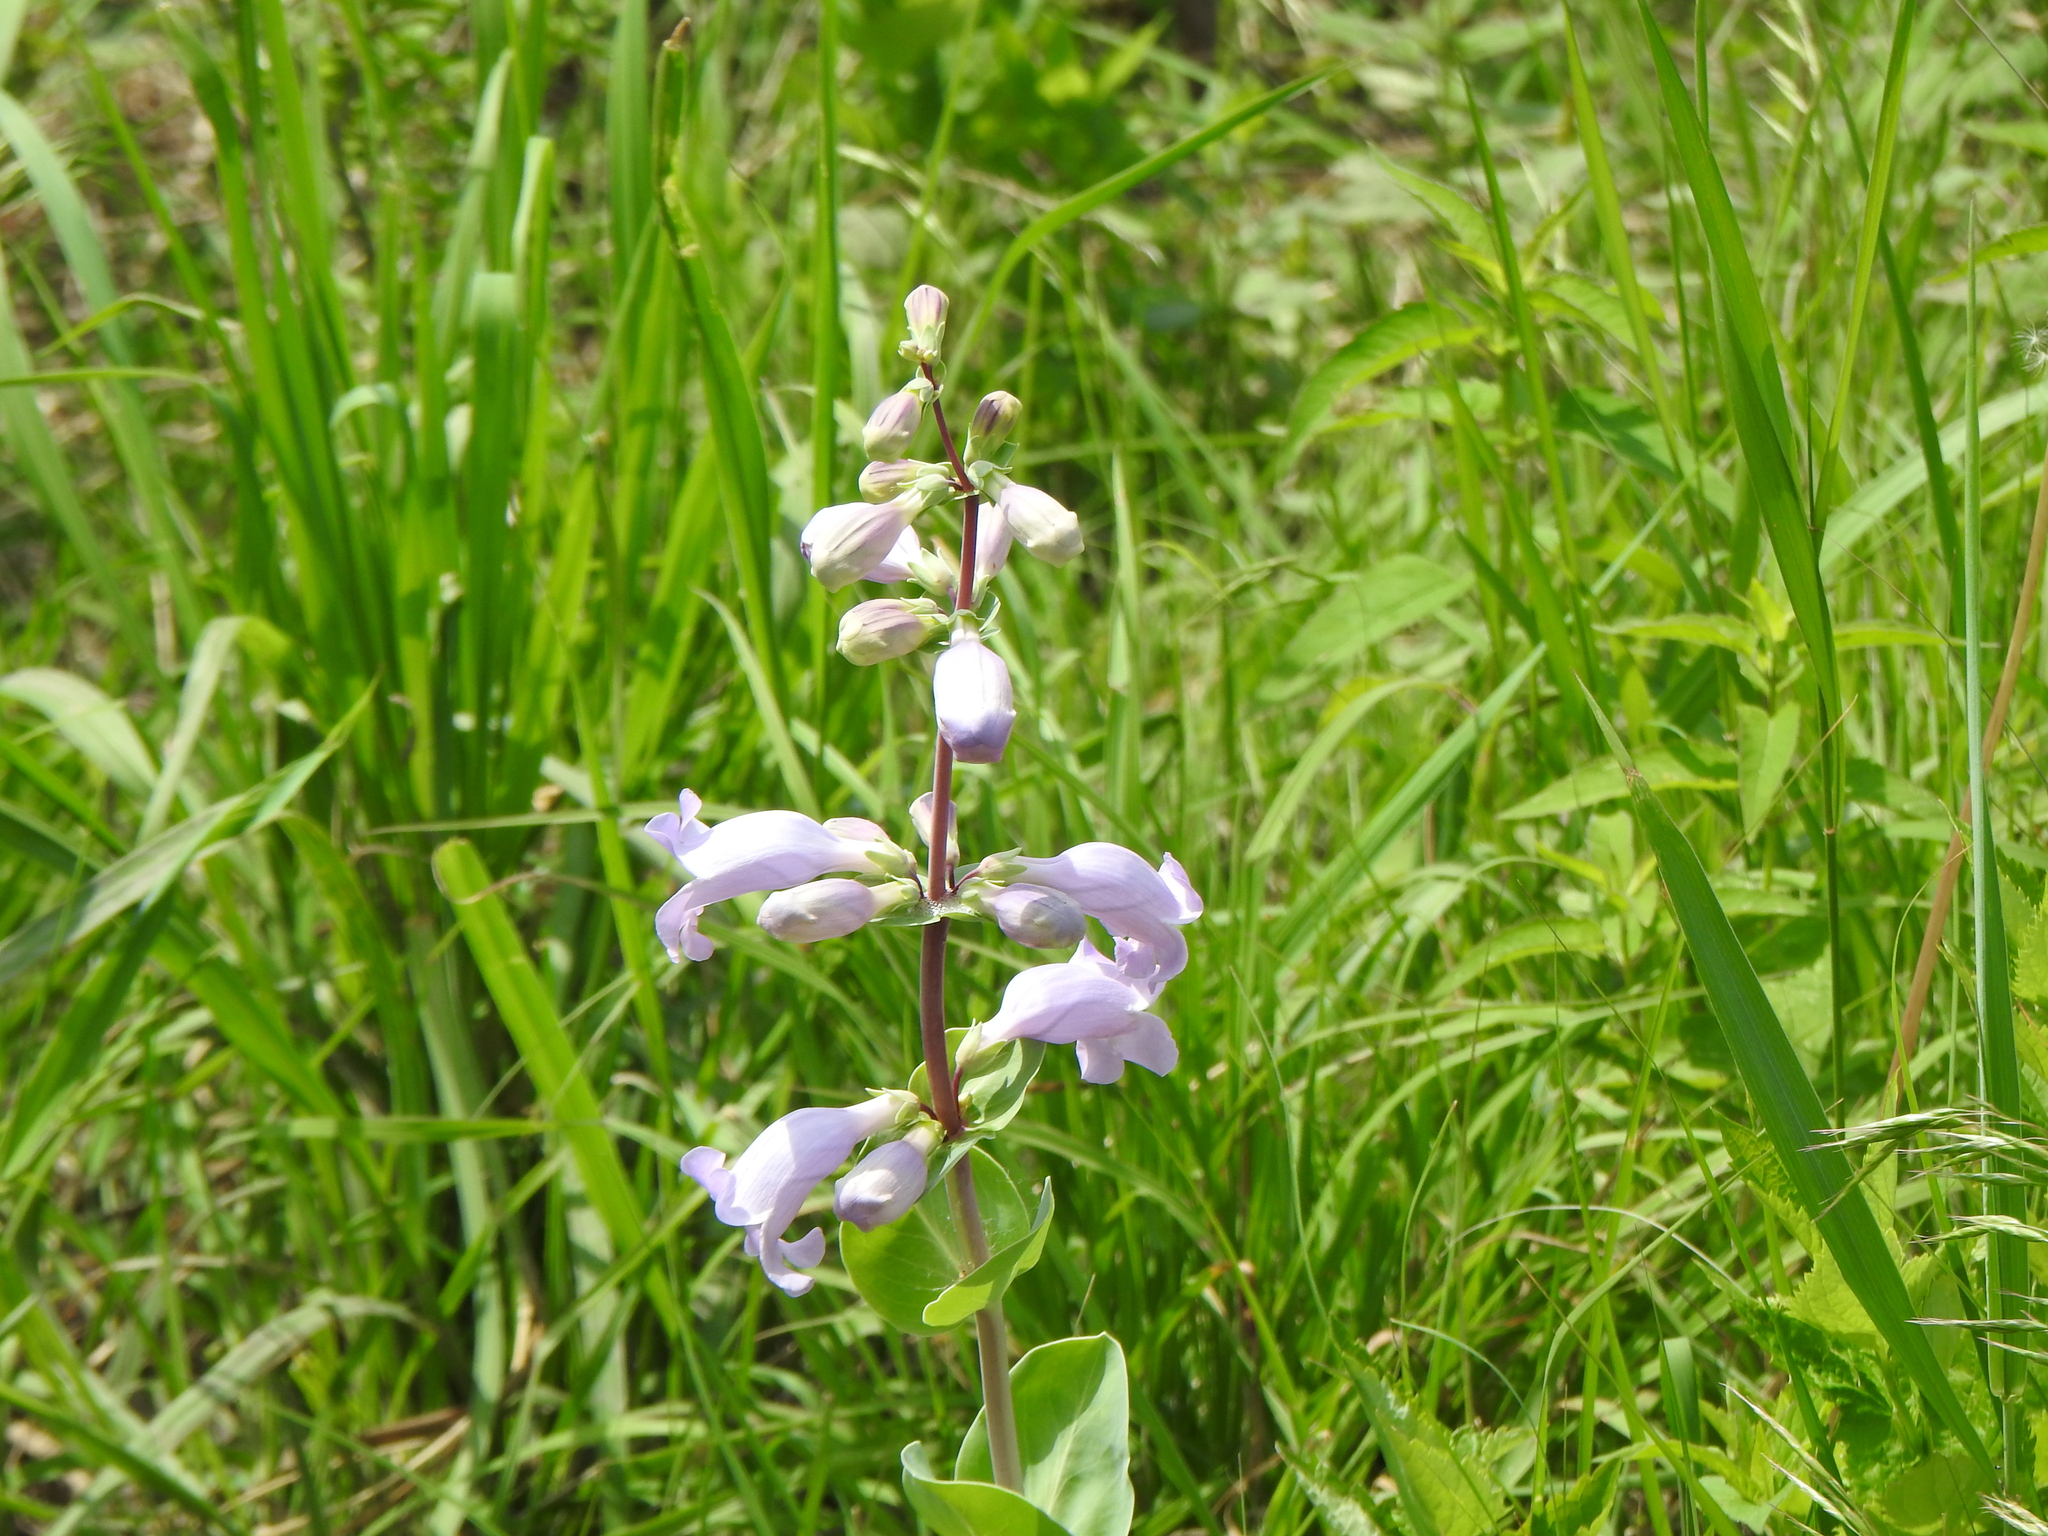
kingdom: Plantae
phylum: Tracheophyta
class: Magnoliopsida
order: Lamiales
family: Plantaginaceae
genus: Penstemon
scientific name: Penstemon
